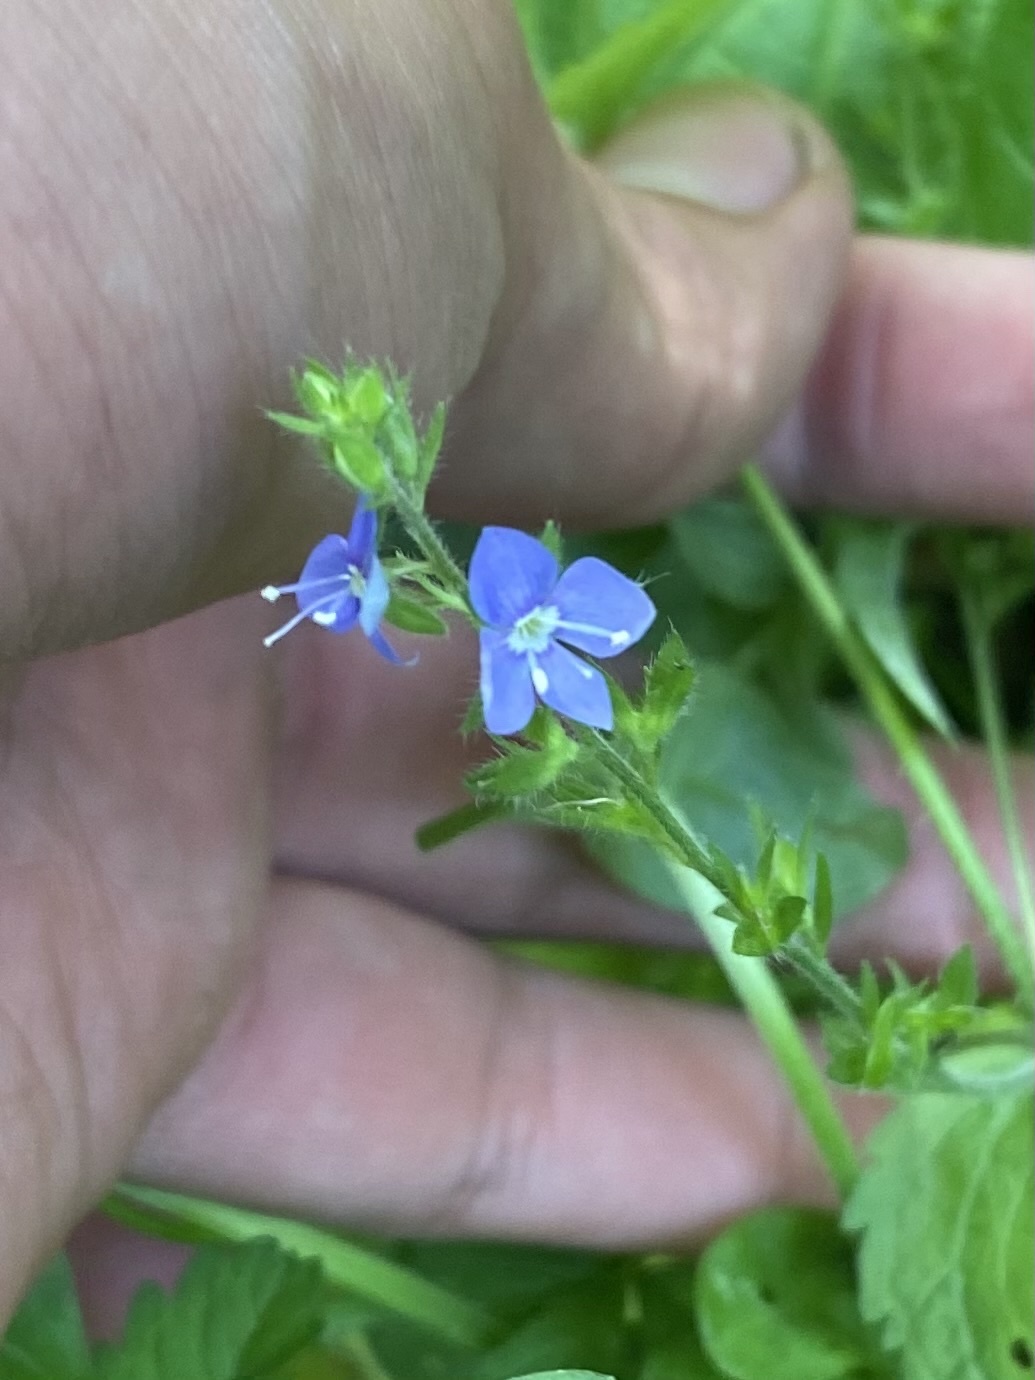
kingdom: Plantae
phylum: Tracheophyta
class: Magnoliopsida
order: Lamiales
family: Plantaginaceae
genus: Veronica
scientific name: Veronica chamaedrys
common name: Germander speedwell
